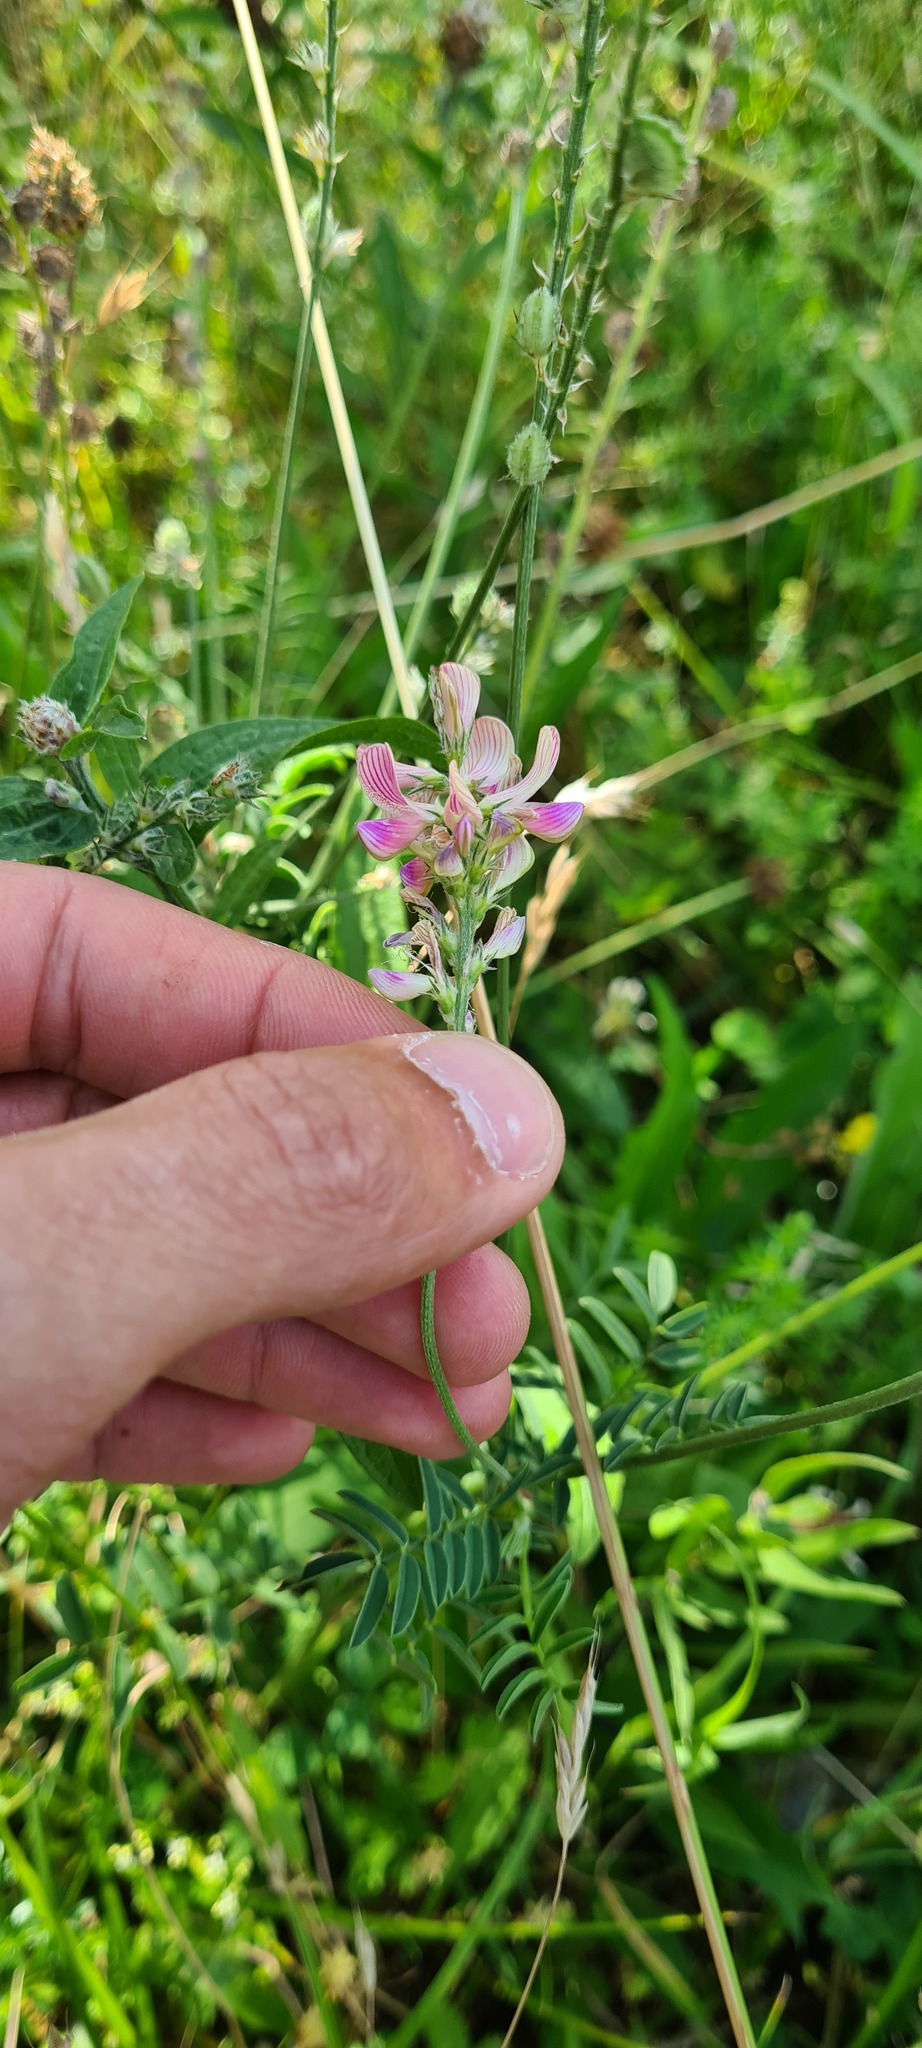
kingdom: Plantae
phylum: Tracheophyta
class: Magnoliopsida
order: Fabales
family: Fabaceae
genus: Onobrychis
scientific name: Onobrychis viciifolia
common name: Sainfoin
